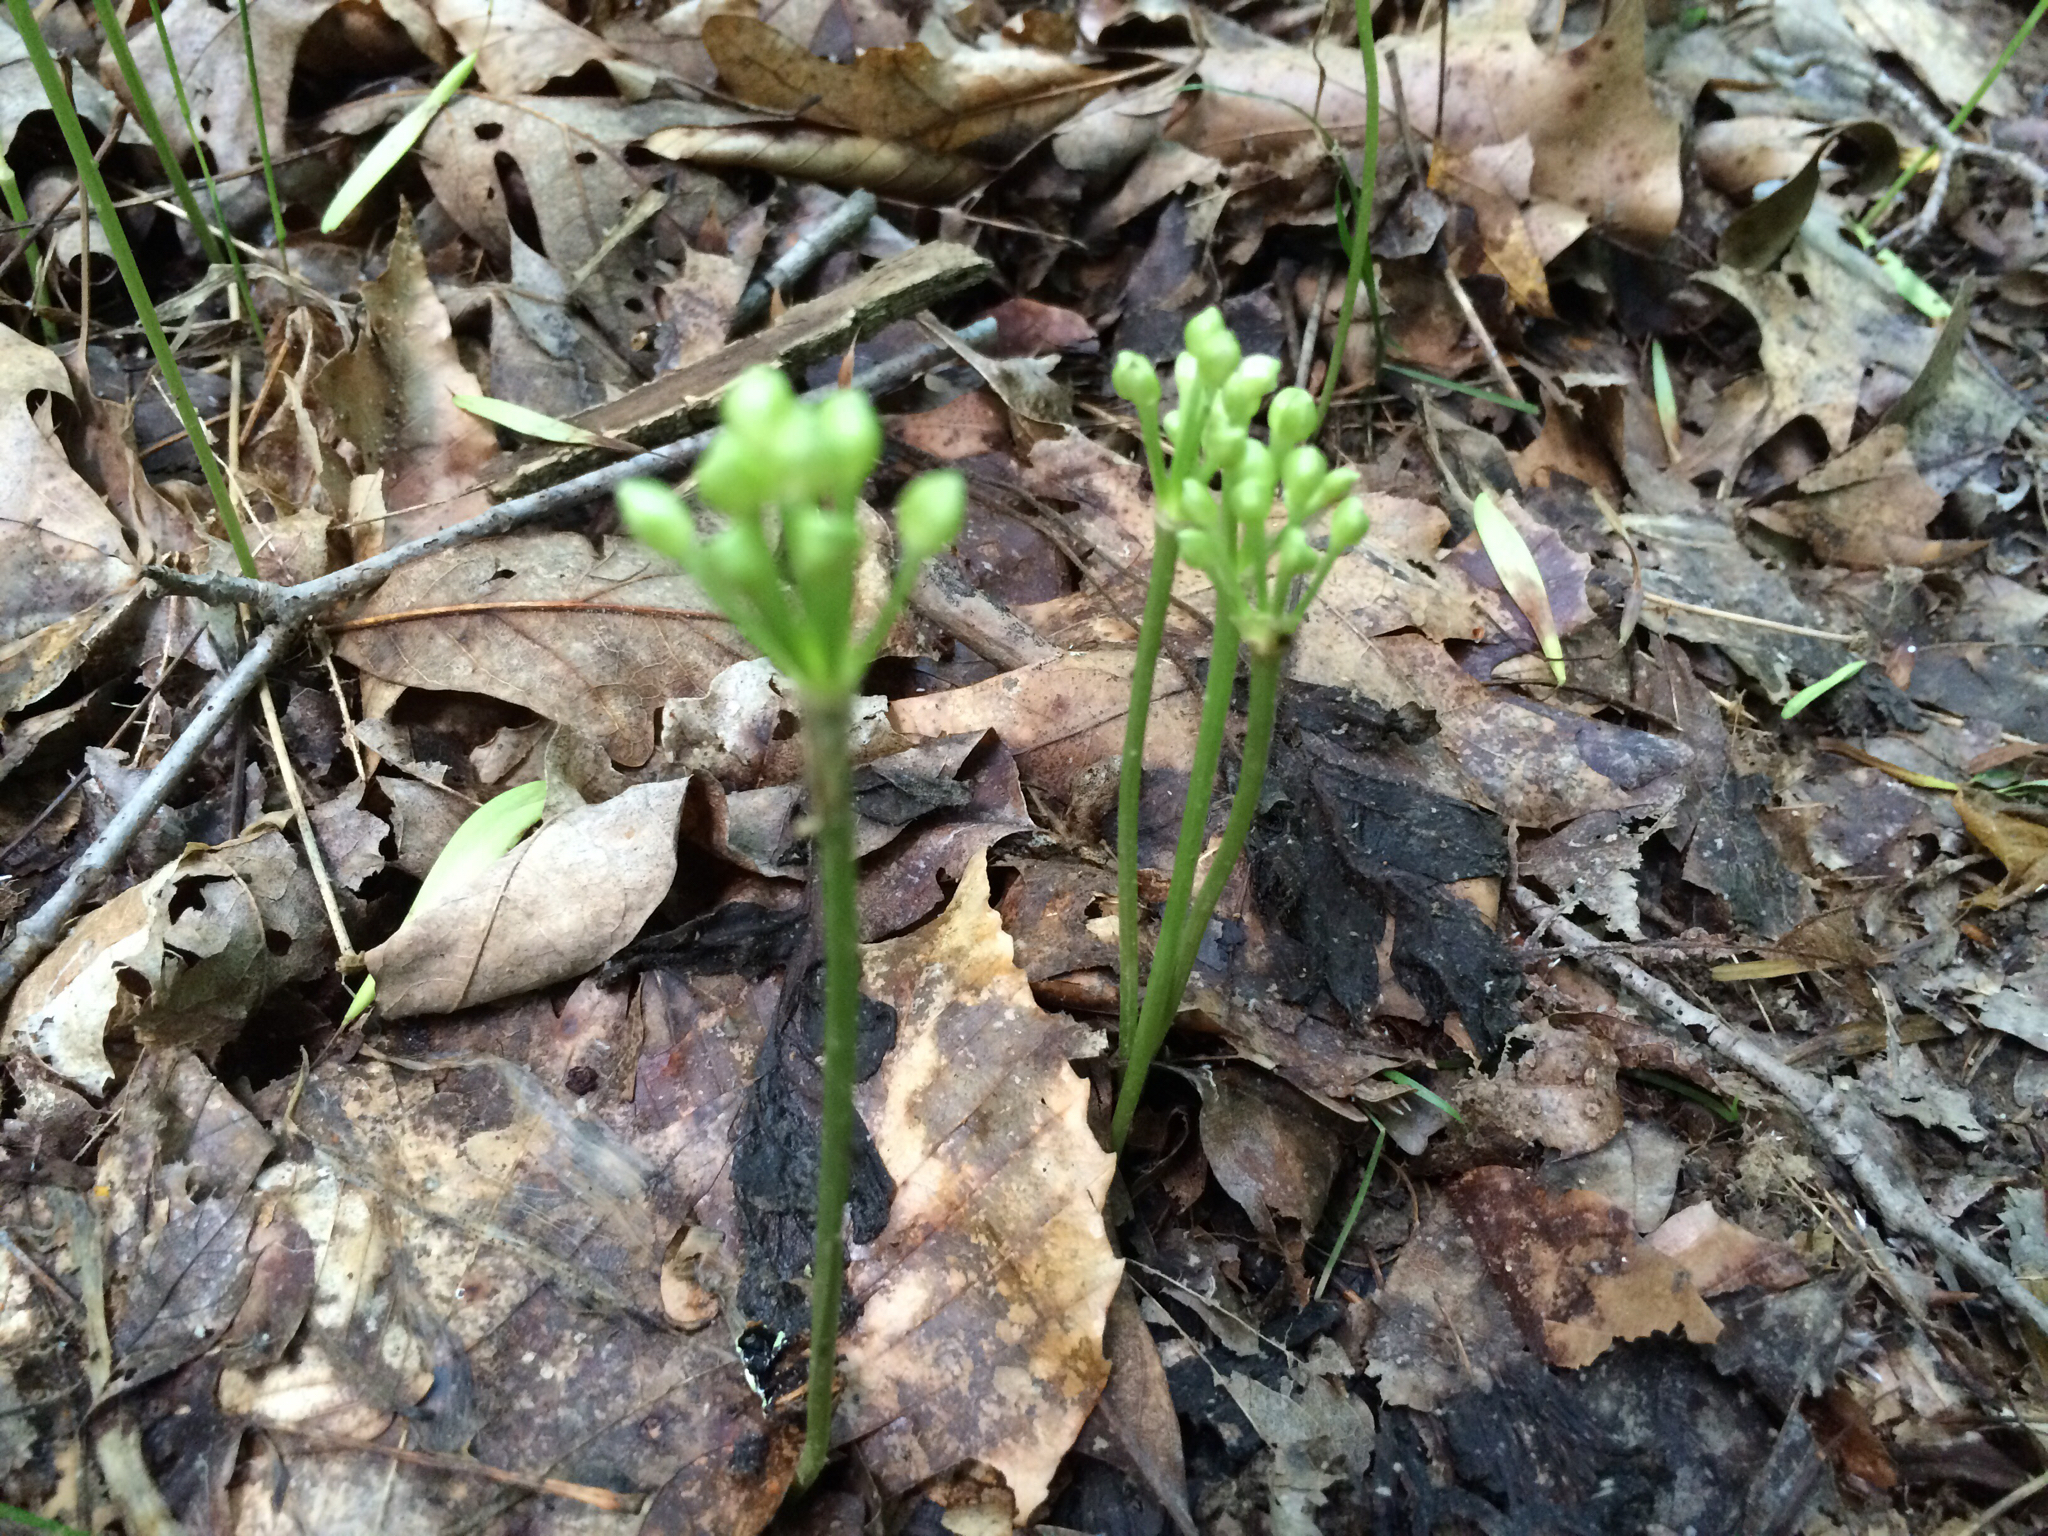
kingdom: Plantae
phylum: Tracheophyta
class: Liliopsida
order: Asparagales
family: Amaryllidaceae
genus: Allium
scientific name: Allium tricoccum
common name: Ramp
